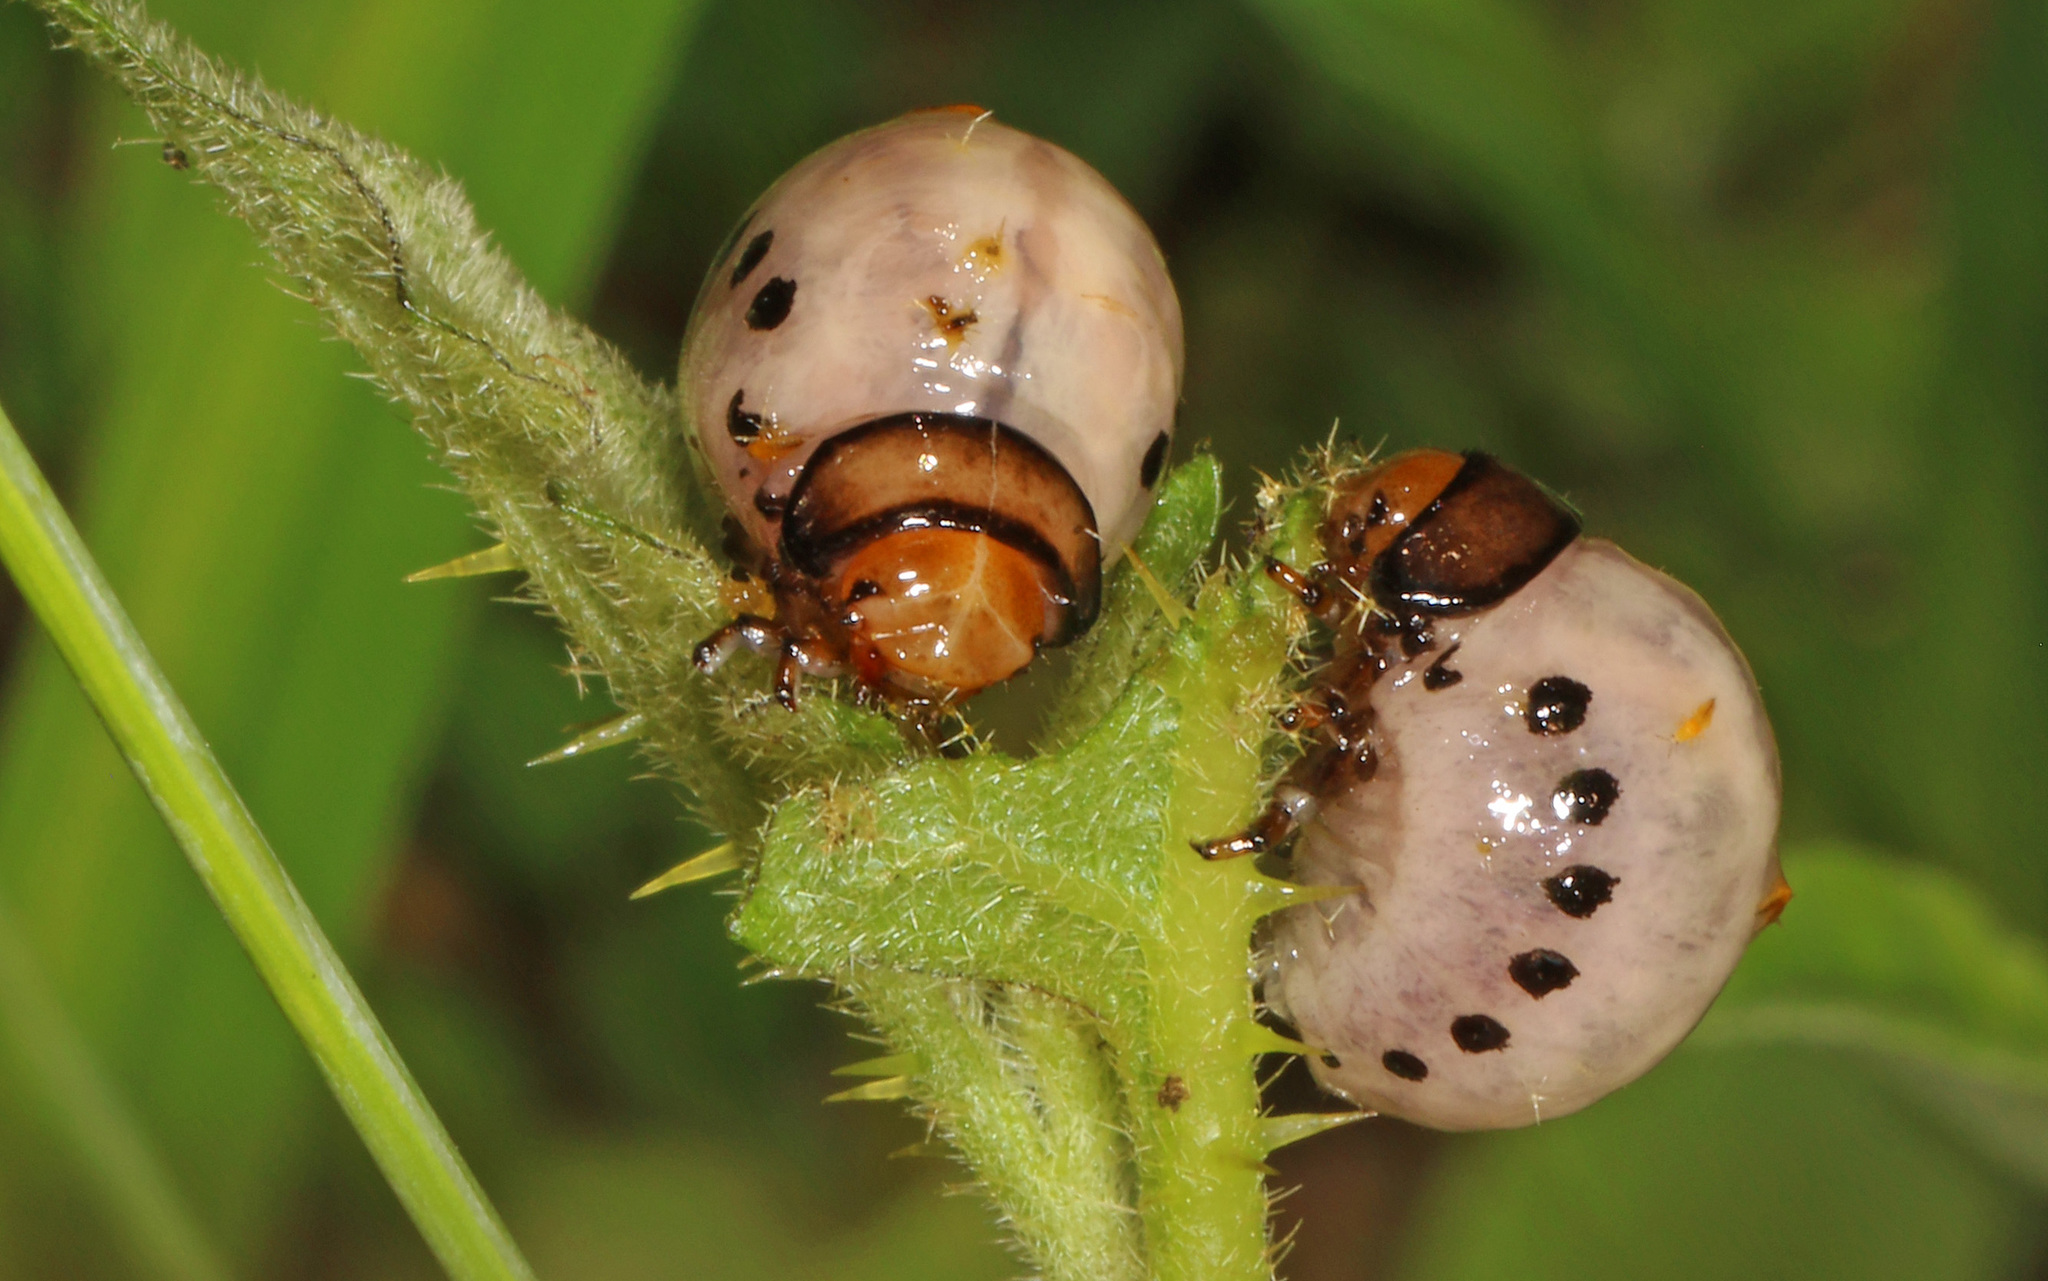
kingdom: Animalia
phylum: Arthropoda
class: Insecta
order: Coleoptera
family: Chrysomelidae
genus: Leptinotarsa
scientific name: Leptinotarsa juncta
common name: False potato beetle
